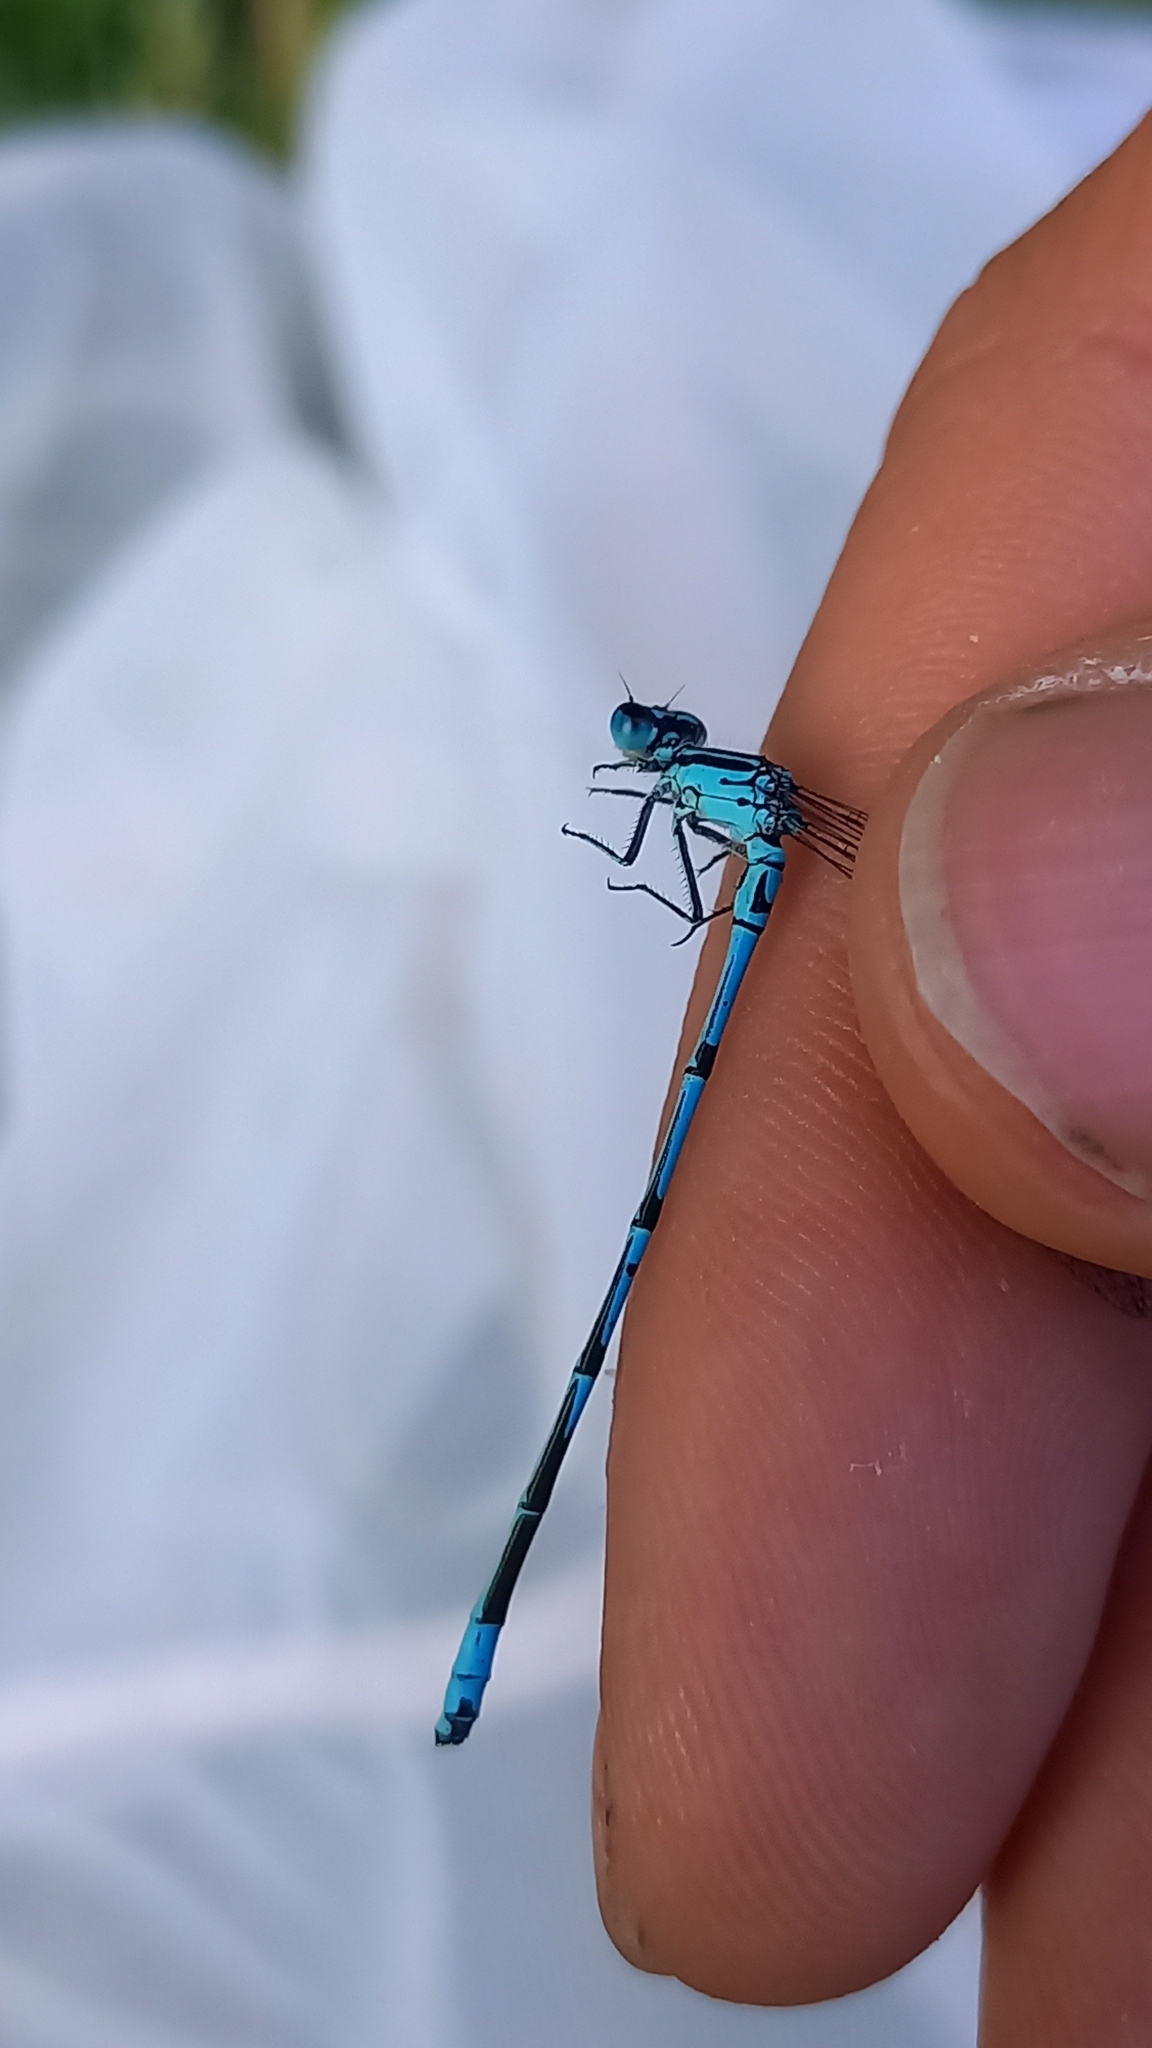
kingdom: Animalia
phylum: Arthropoda
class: Insecta
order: Odonata
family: Coenagrionidae
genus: Coenagrion
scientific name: Coenagrion puella
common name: Azure damselfly
